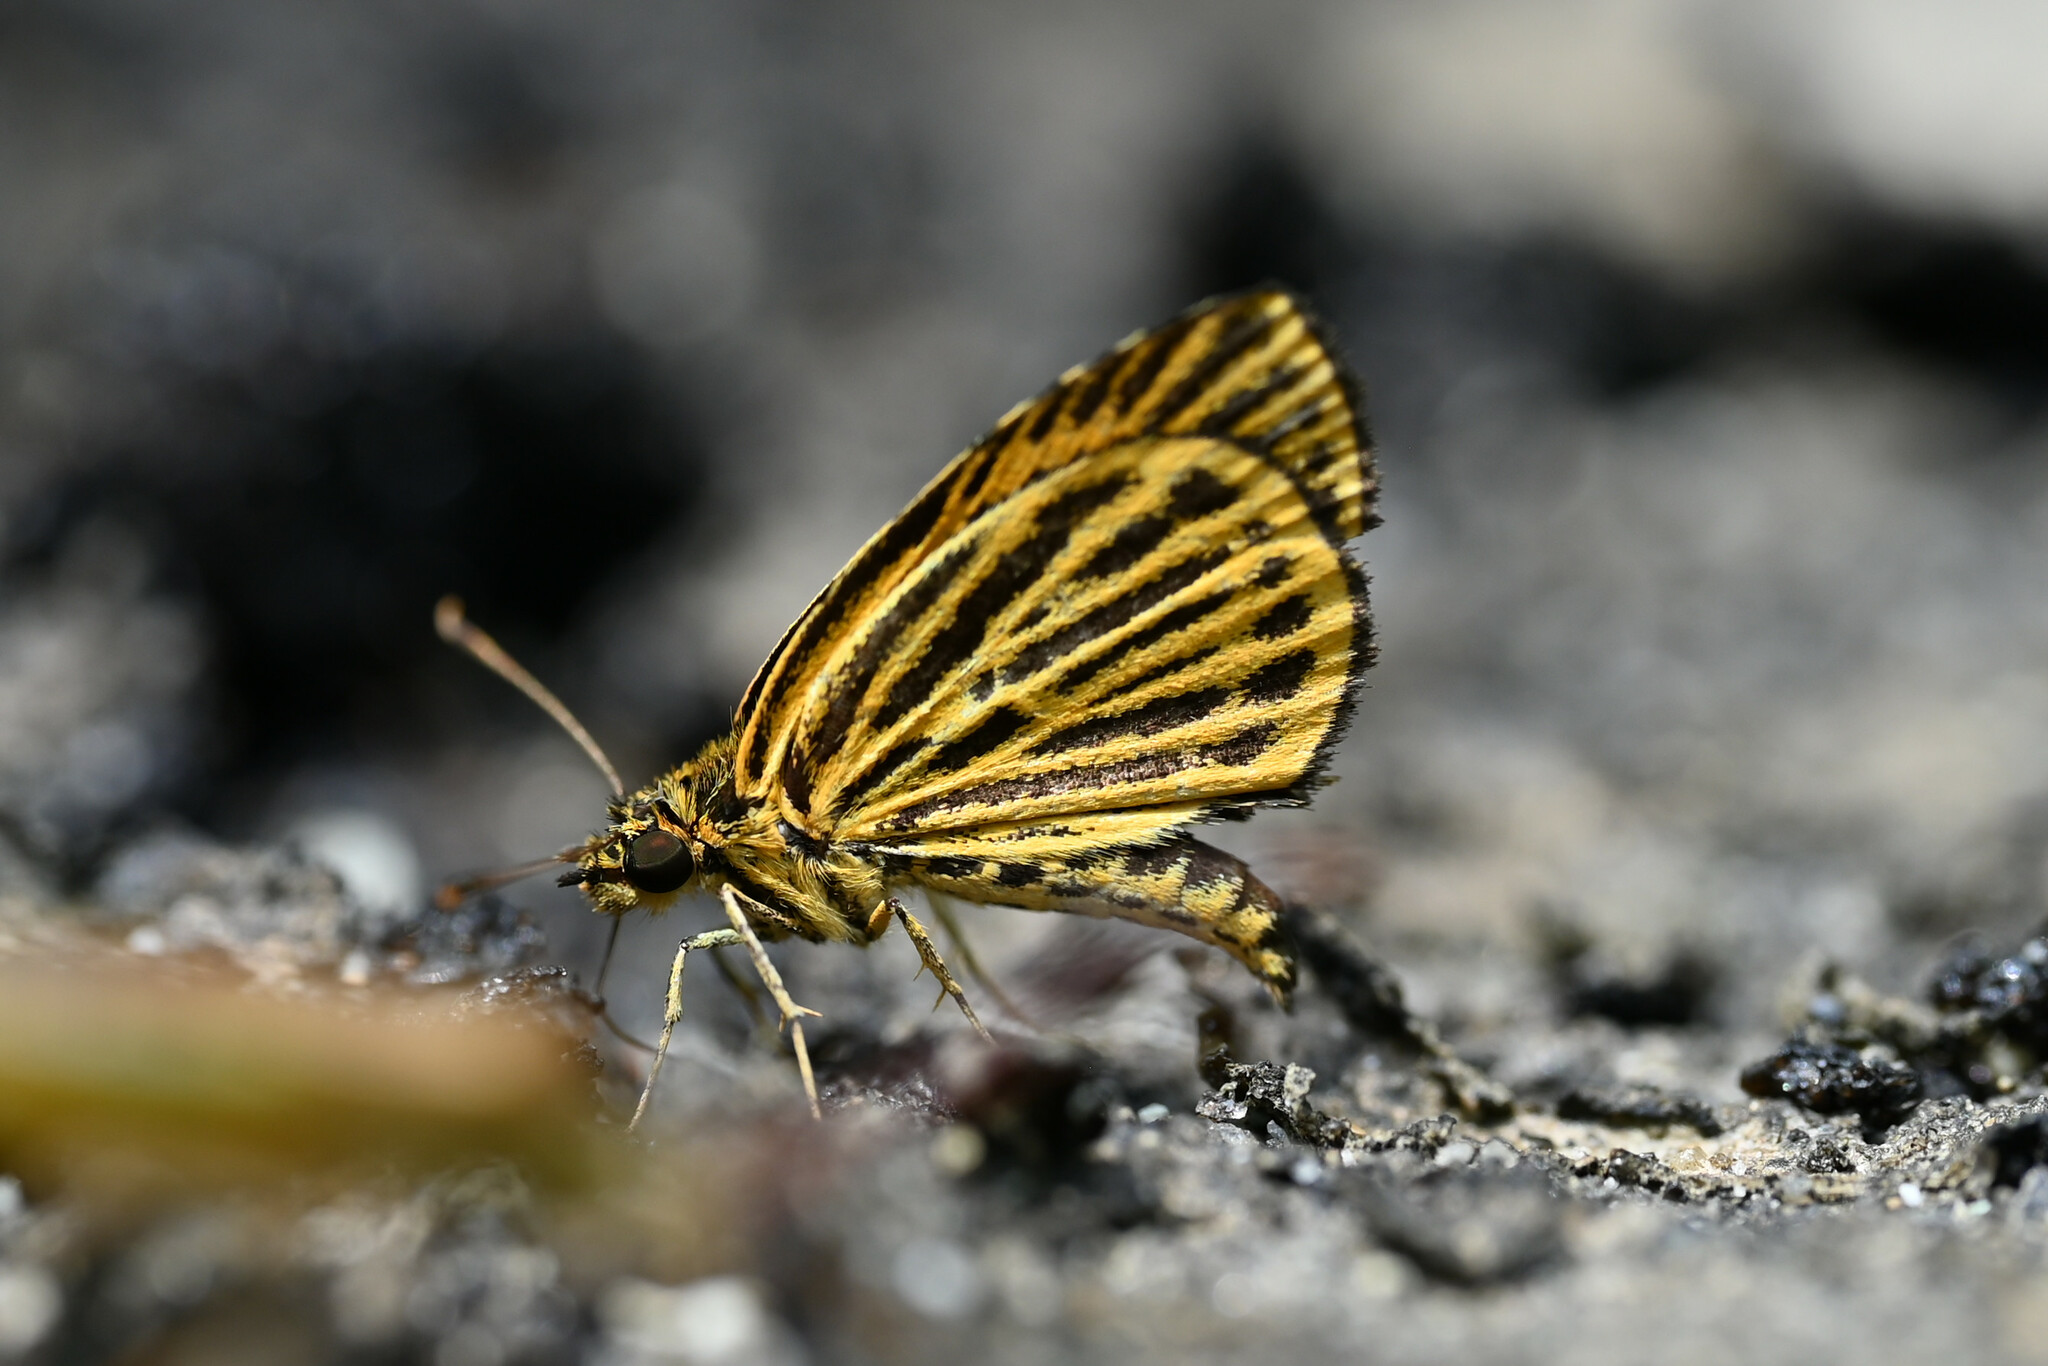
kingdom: Animalia
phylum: Arthropoda
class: Insecta
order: Lepidoptera
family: Hesperiidae
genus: Ampittia
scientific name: Ampittia subvittatus
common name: Tiger hopper
